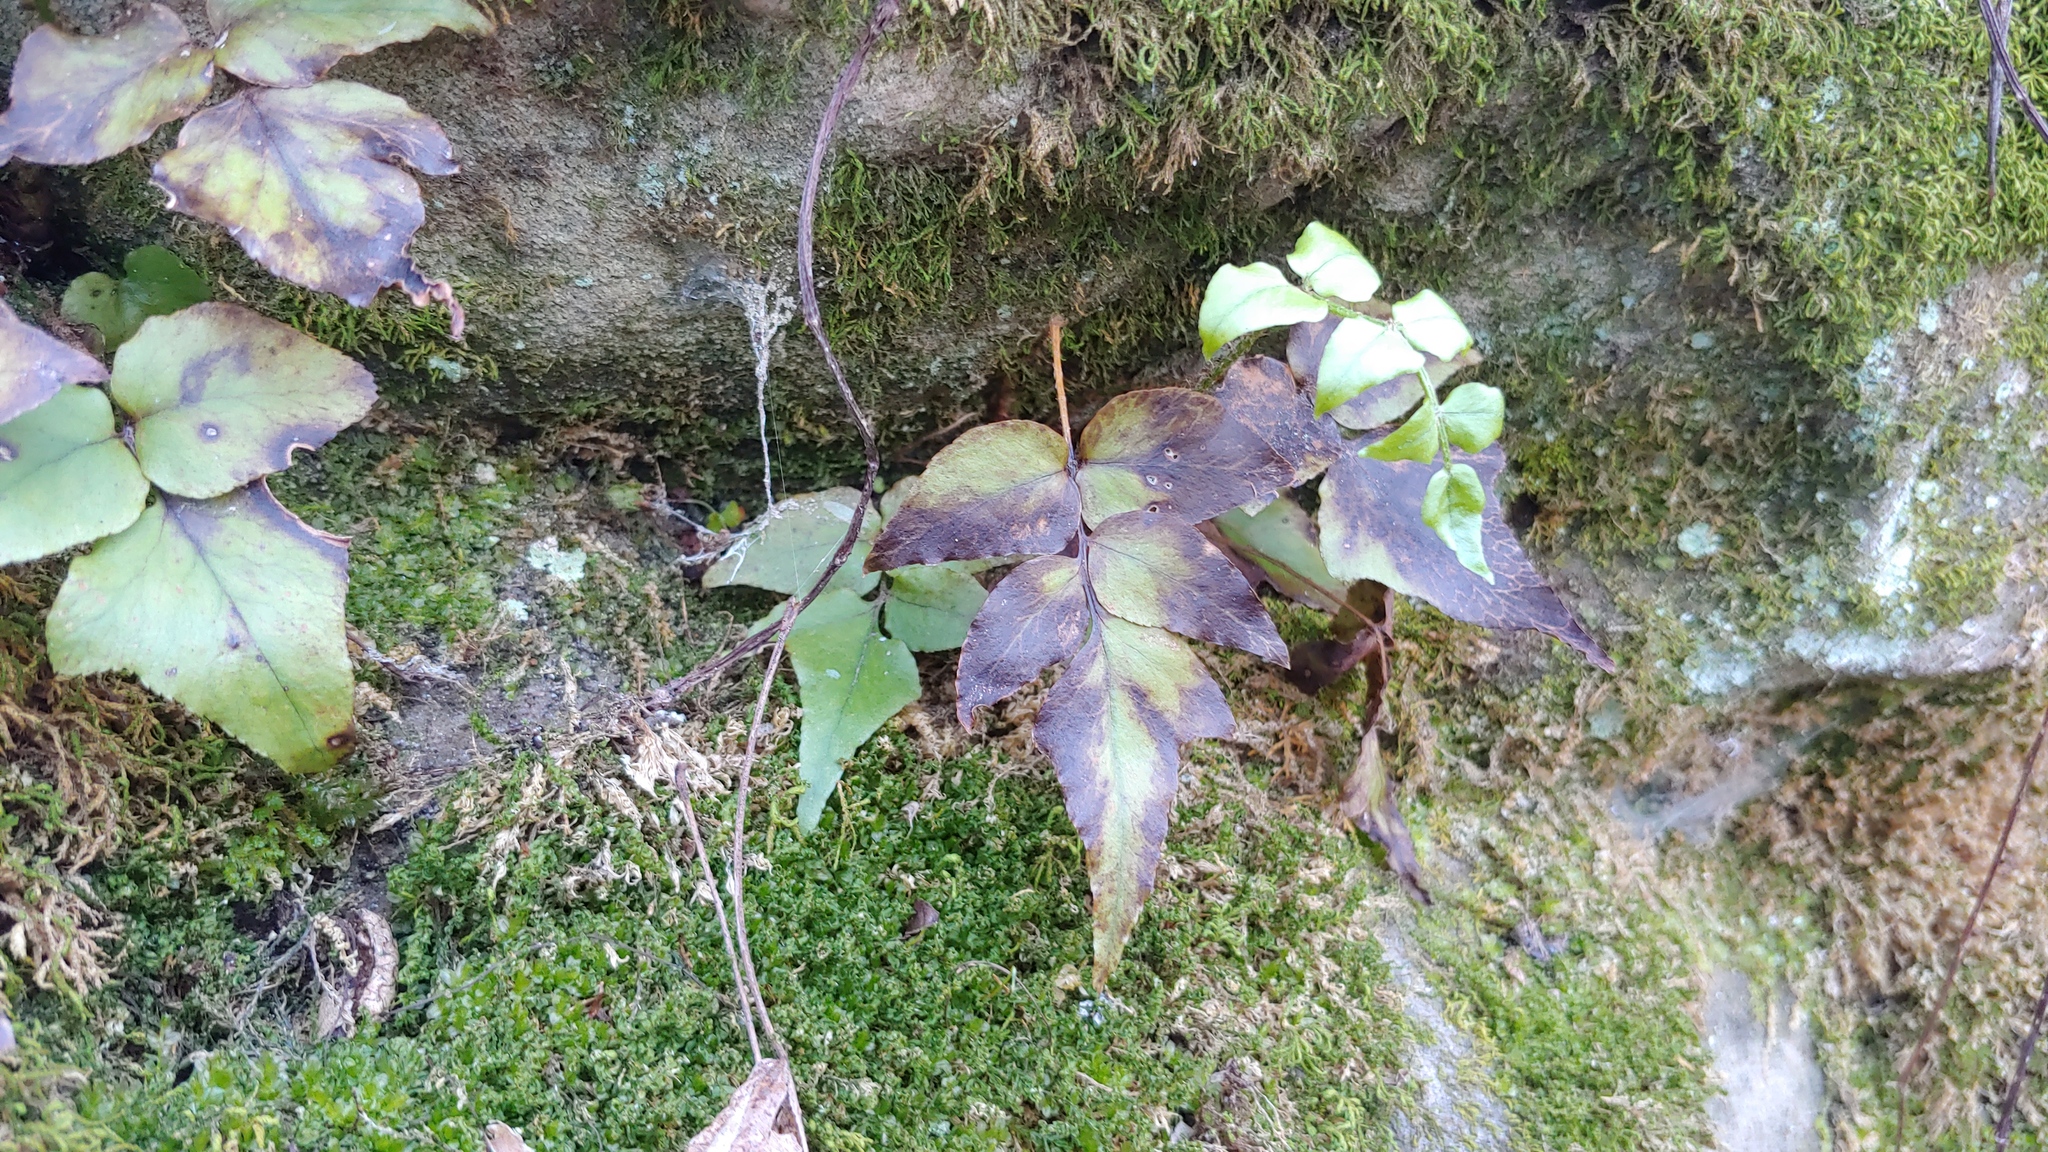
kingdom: Plantae
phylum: Tracheophyta
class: Polypodiopsida
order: Polypodiales
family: Dryopteridaceae
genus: Cyrtomium
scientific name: Cyrtomium fortunei
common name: Asian netvein hollyfern
